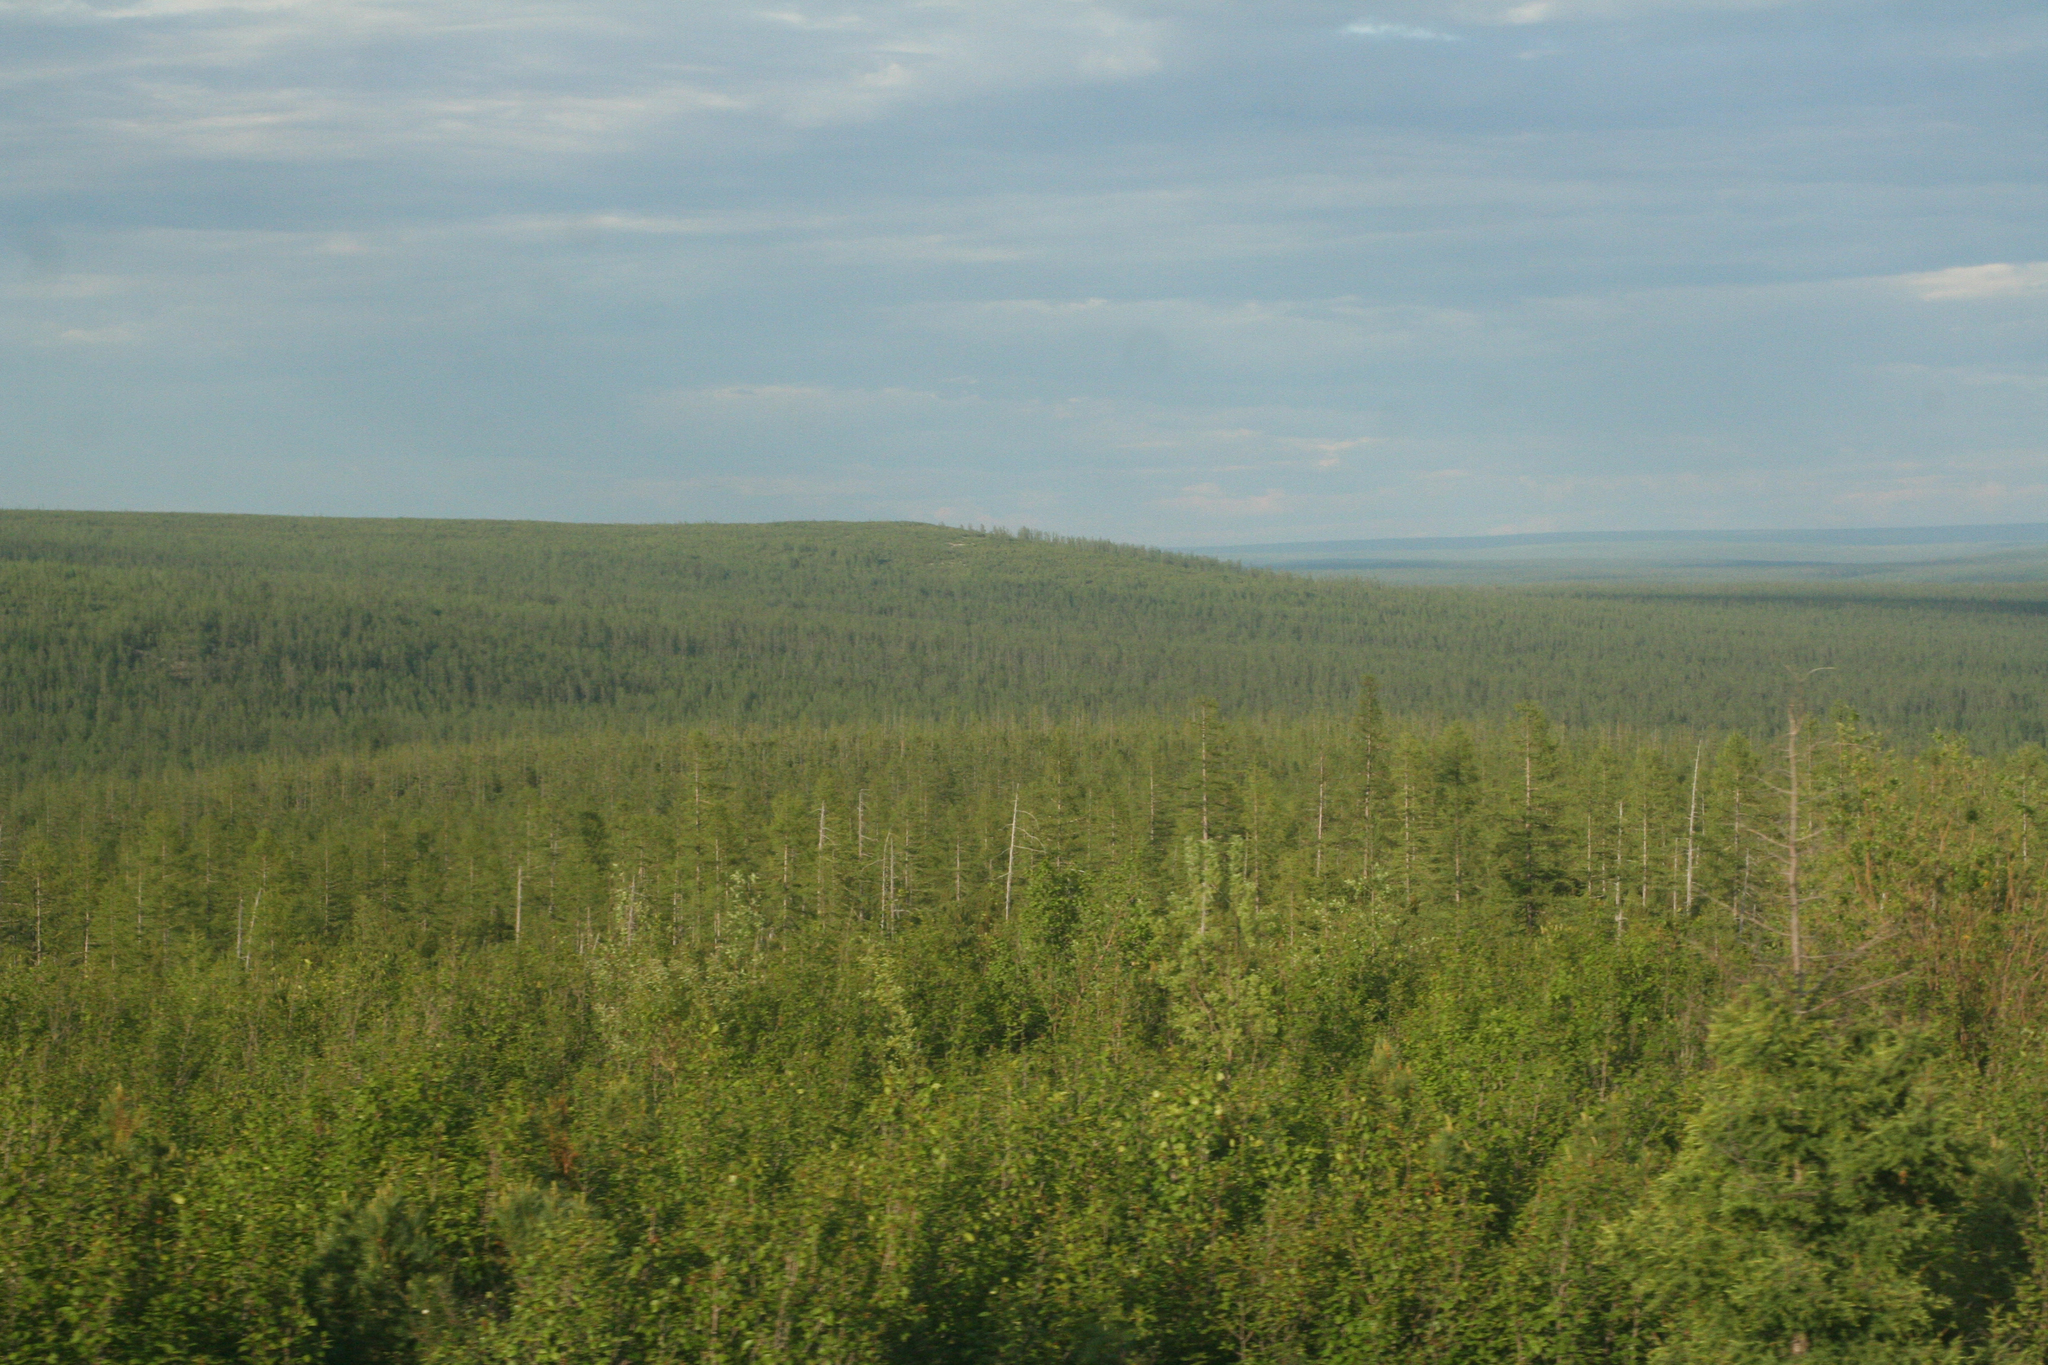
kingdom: Plantae
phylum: Tracheophyta
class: Pinopsida
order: Pinales
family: Pinaceae
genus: Larix
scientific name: Larix gmelinii
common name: Dahurian larch
